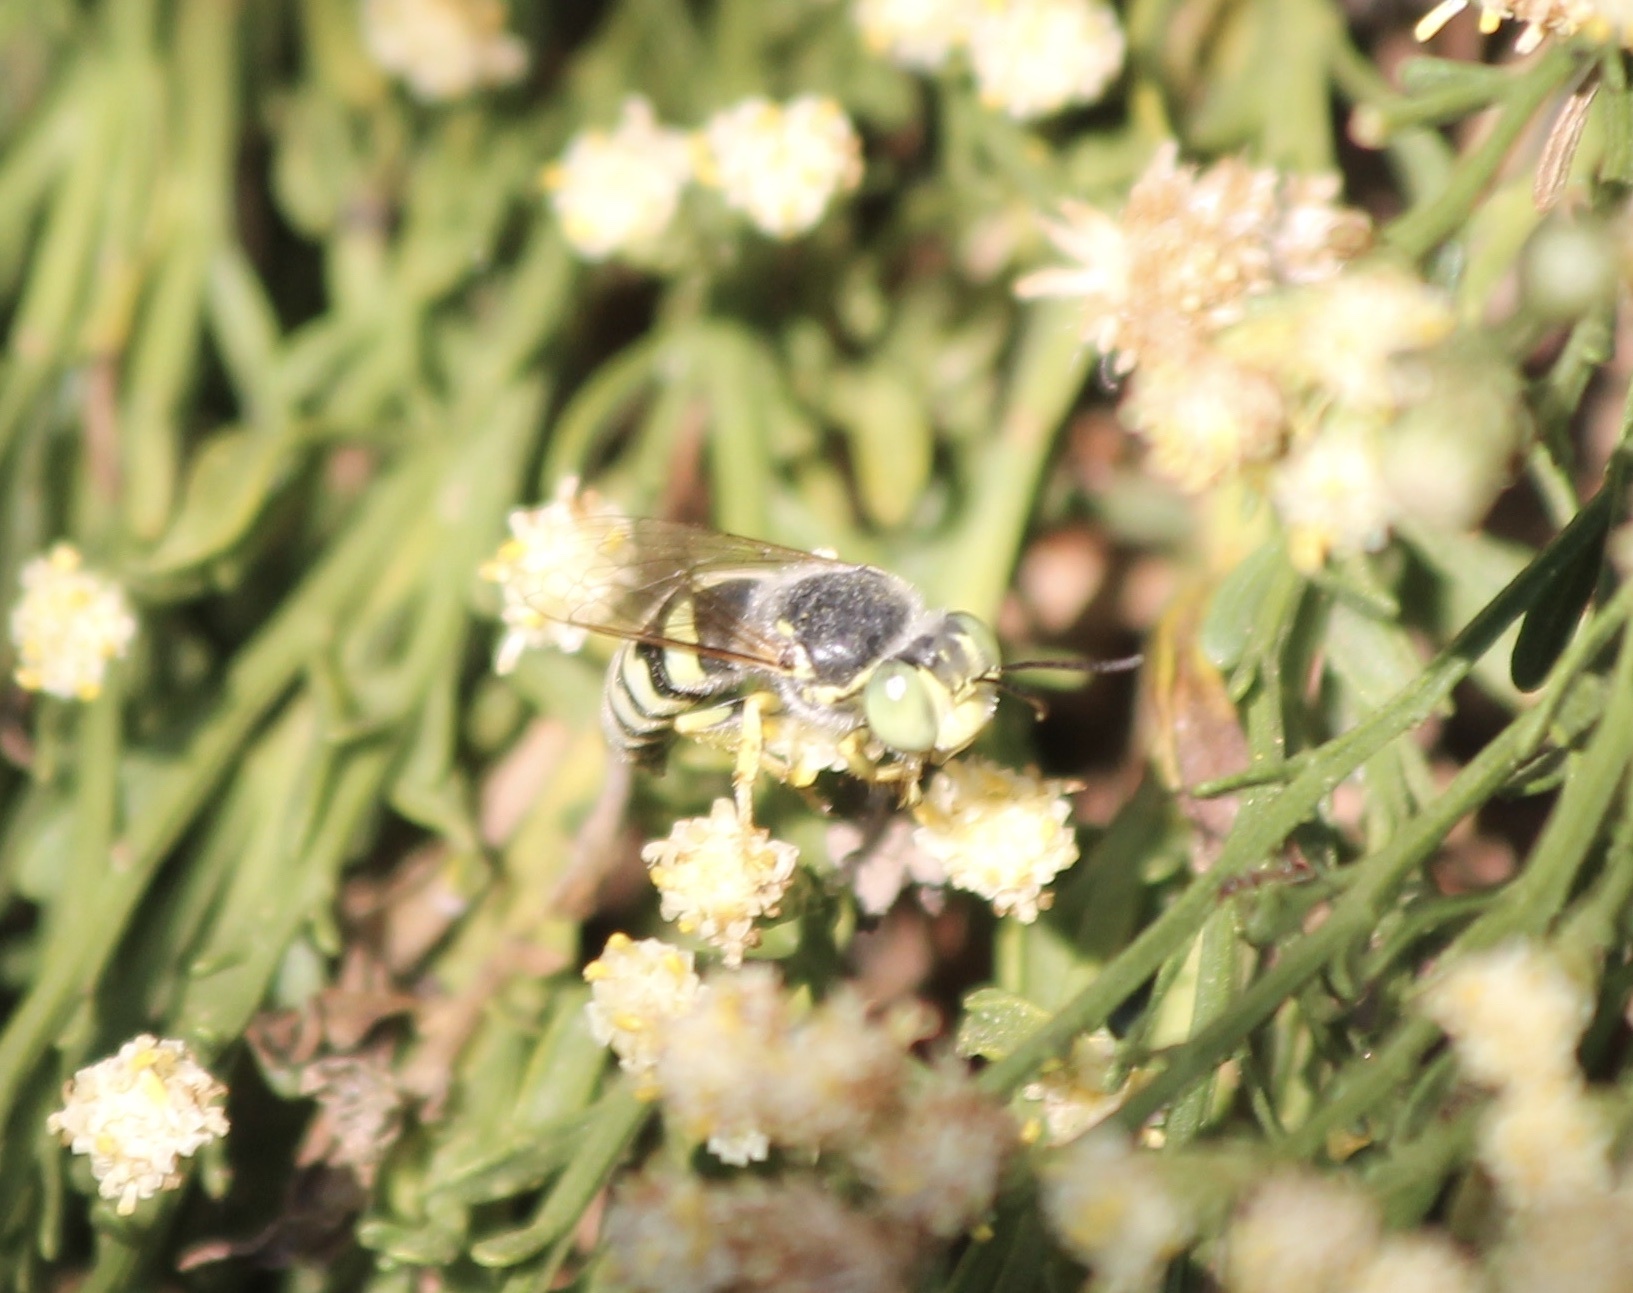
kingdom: Animalia
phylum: Arthropoda
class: Insecta
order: Hymenoptera
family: Crabronidae
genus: Bembix
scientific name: Bembix americana
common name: American sand wasp
